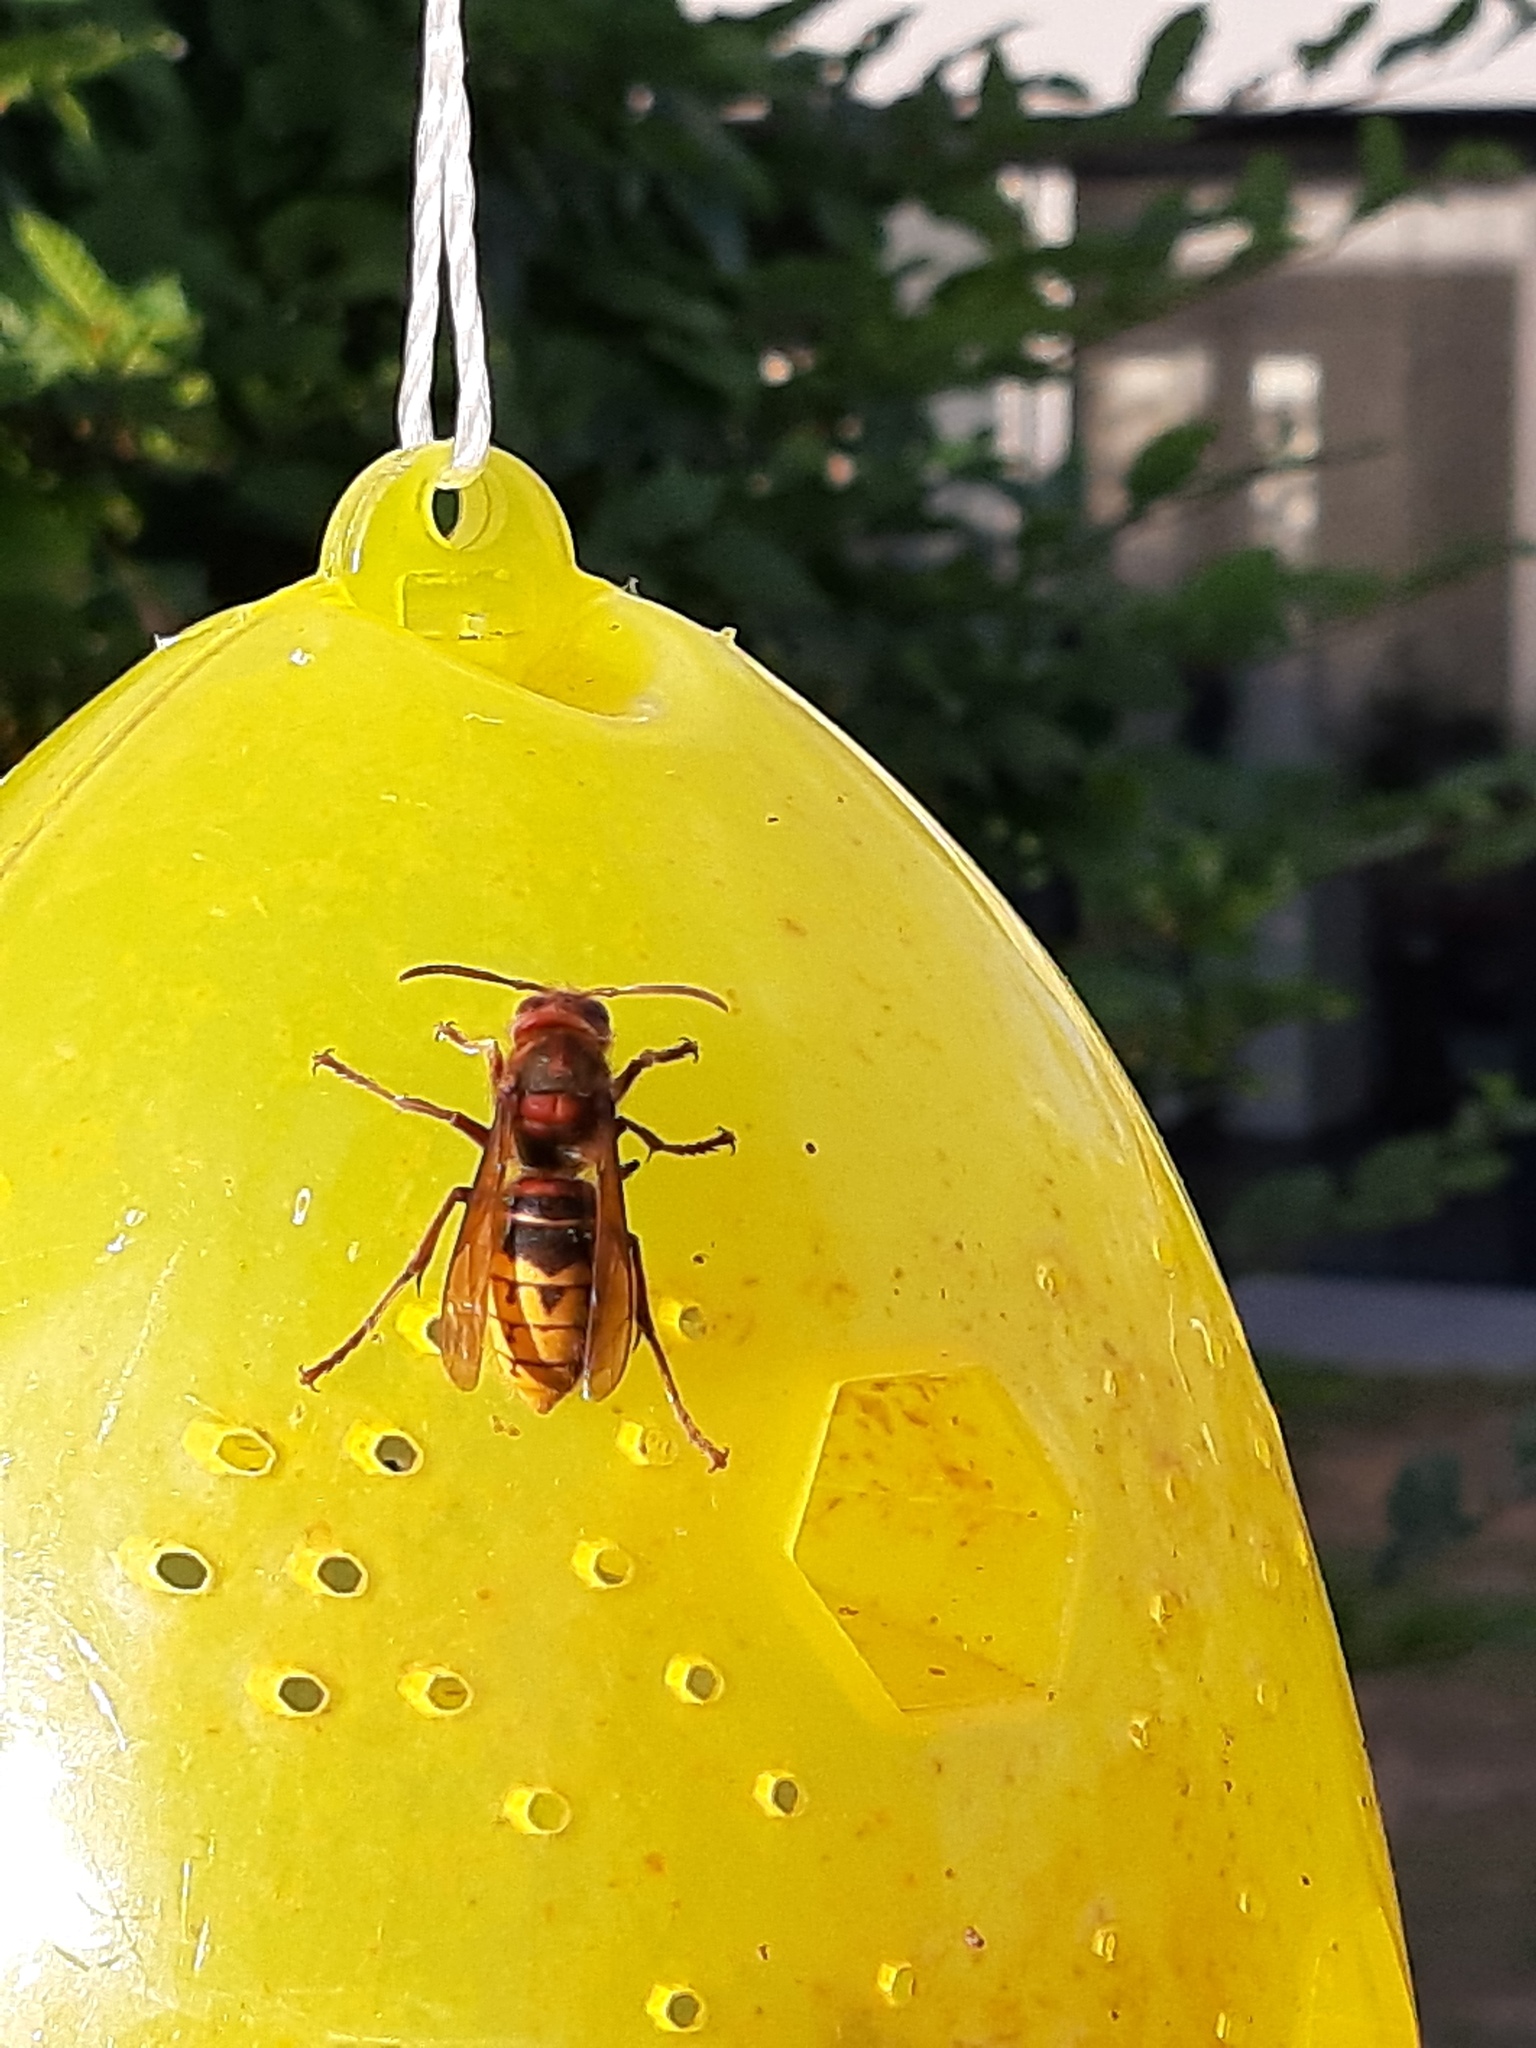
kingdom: Animalia
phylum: Arthropoda
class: Insecta
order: Hymenoptera
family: Vespidae
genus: Vespa
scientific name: Vespa crabro
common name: Hornet
